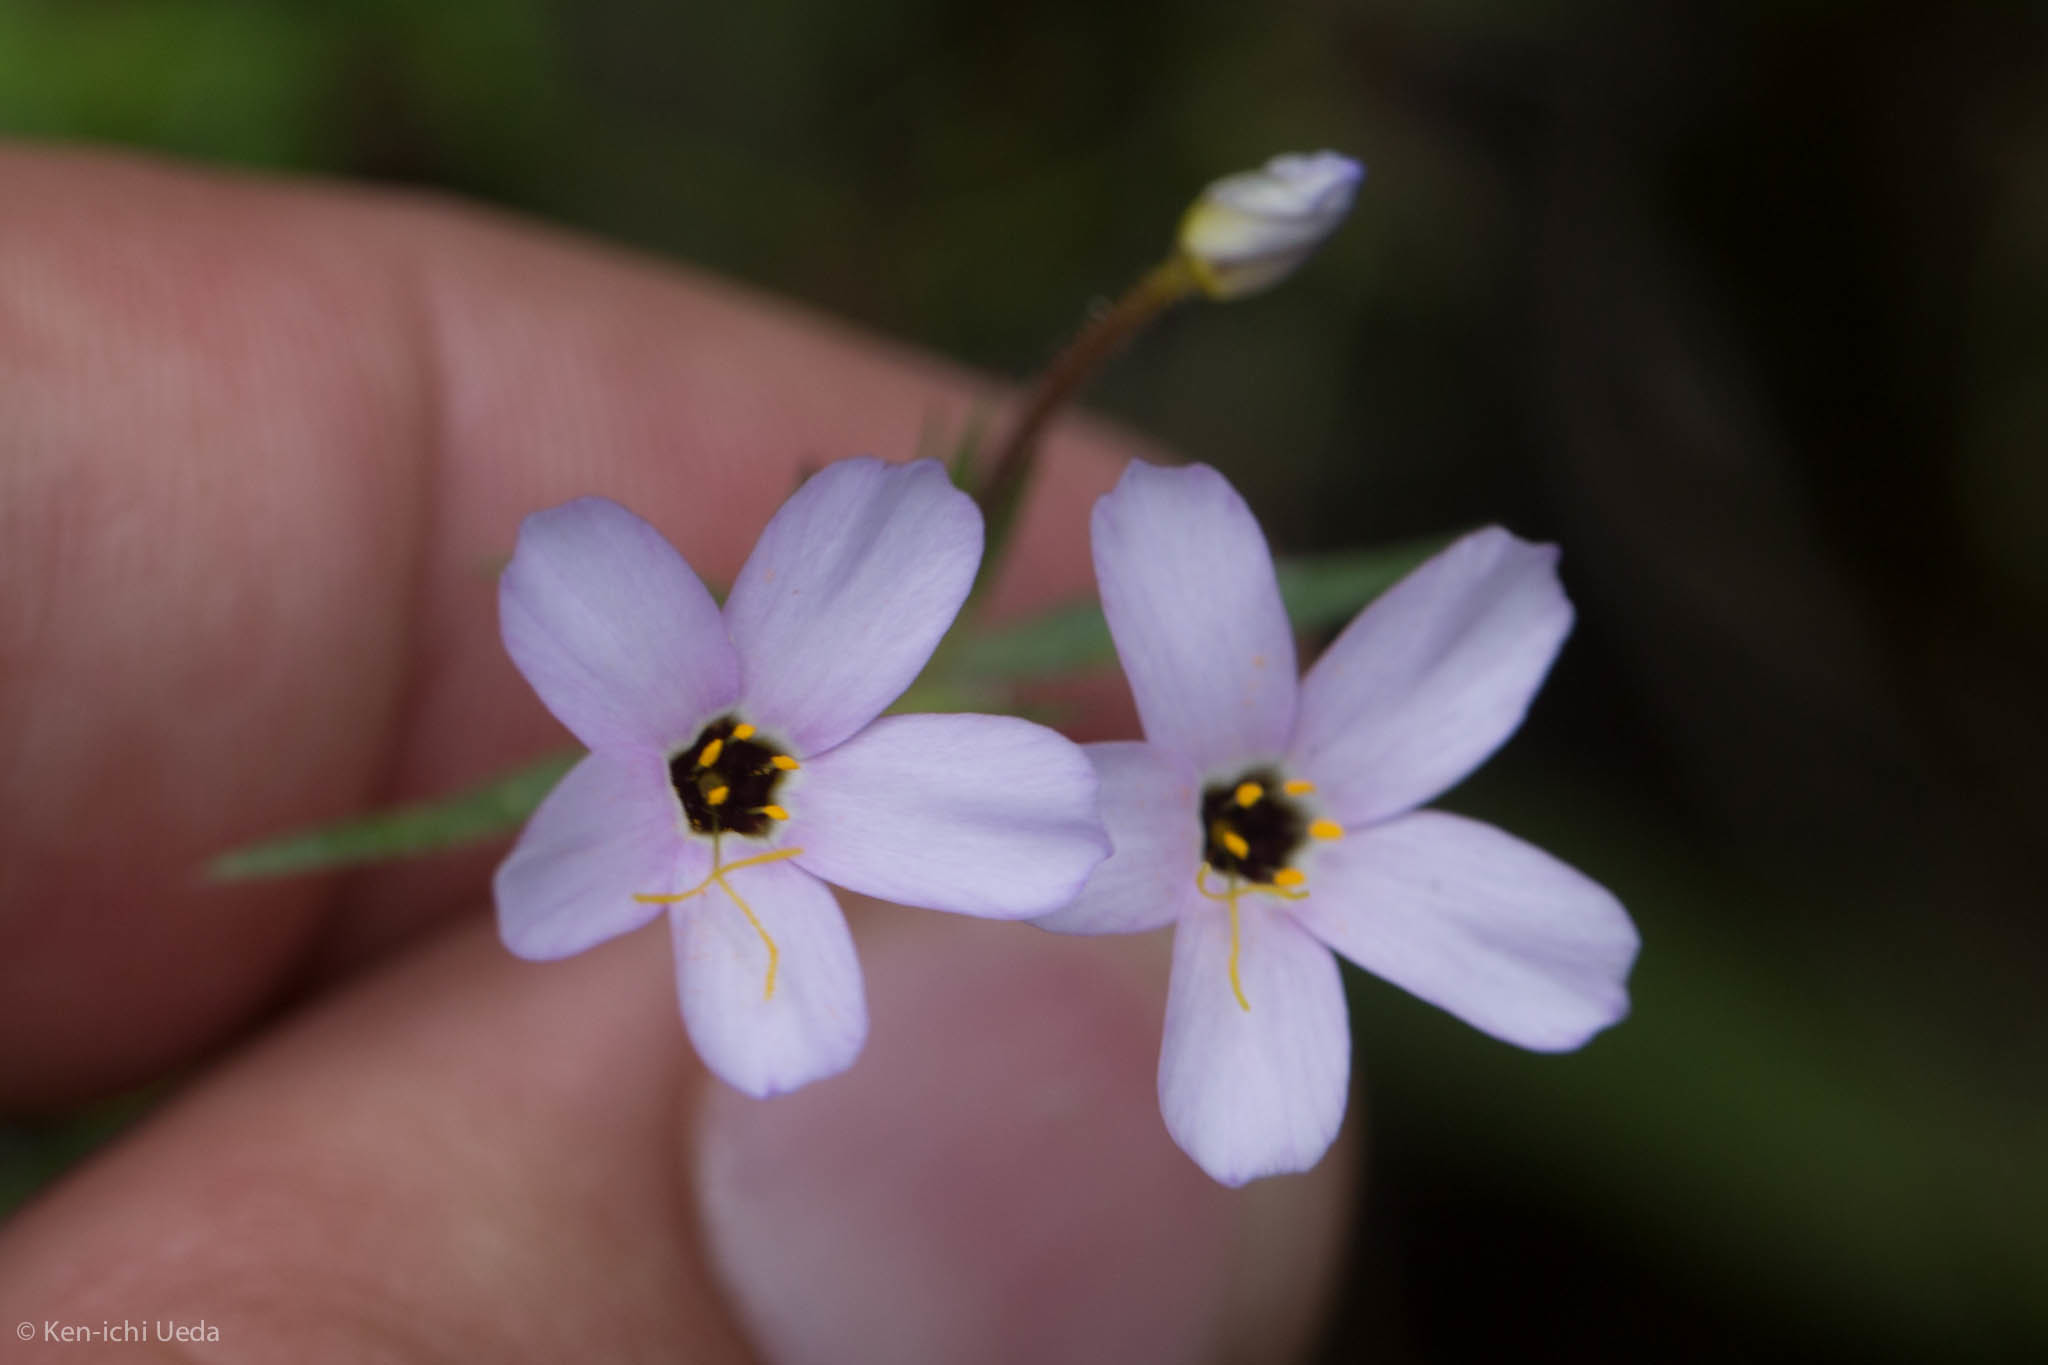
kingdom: Plantae
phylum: Tracheophyta
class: Magnoliopsida
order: Ericales
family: Polemoniaceae
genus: Leptosiphon
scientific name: Leptosiphon androsaceus
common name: False babystars
